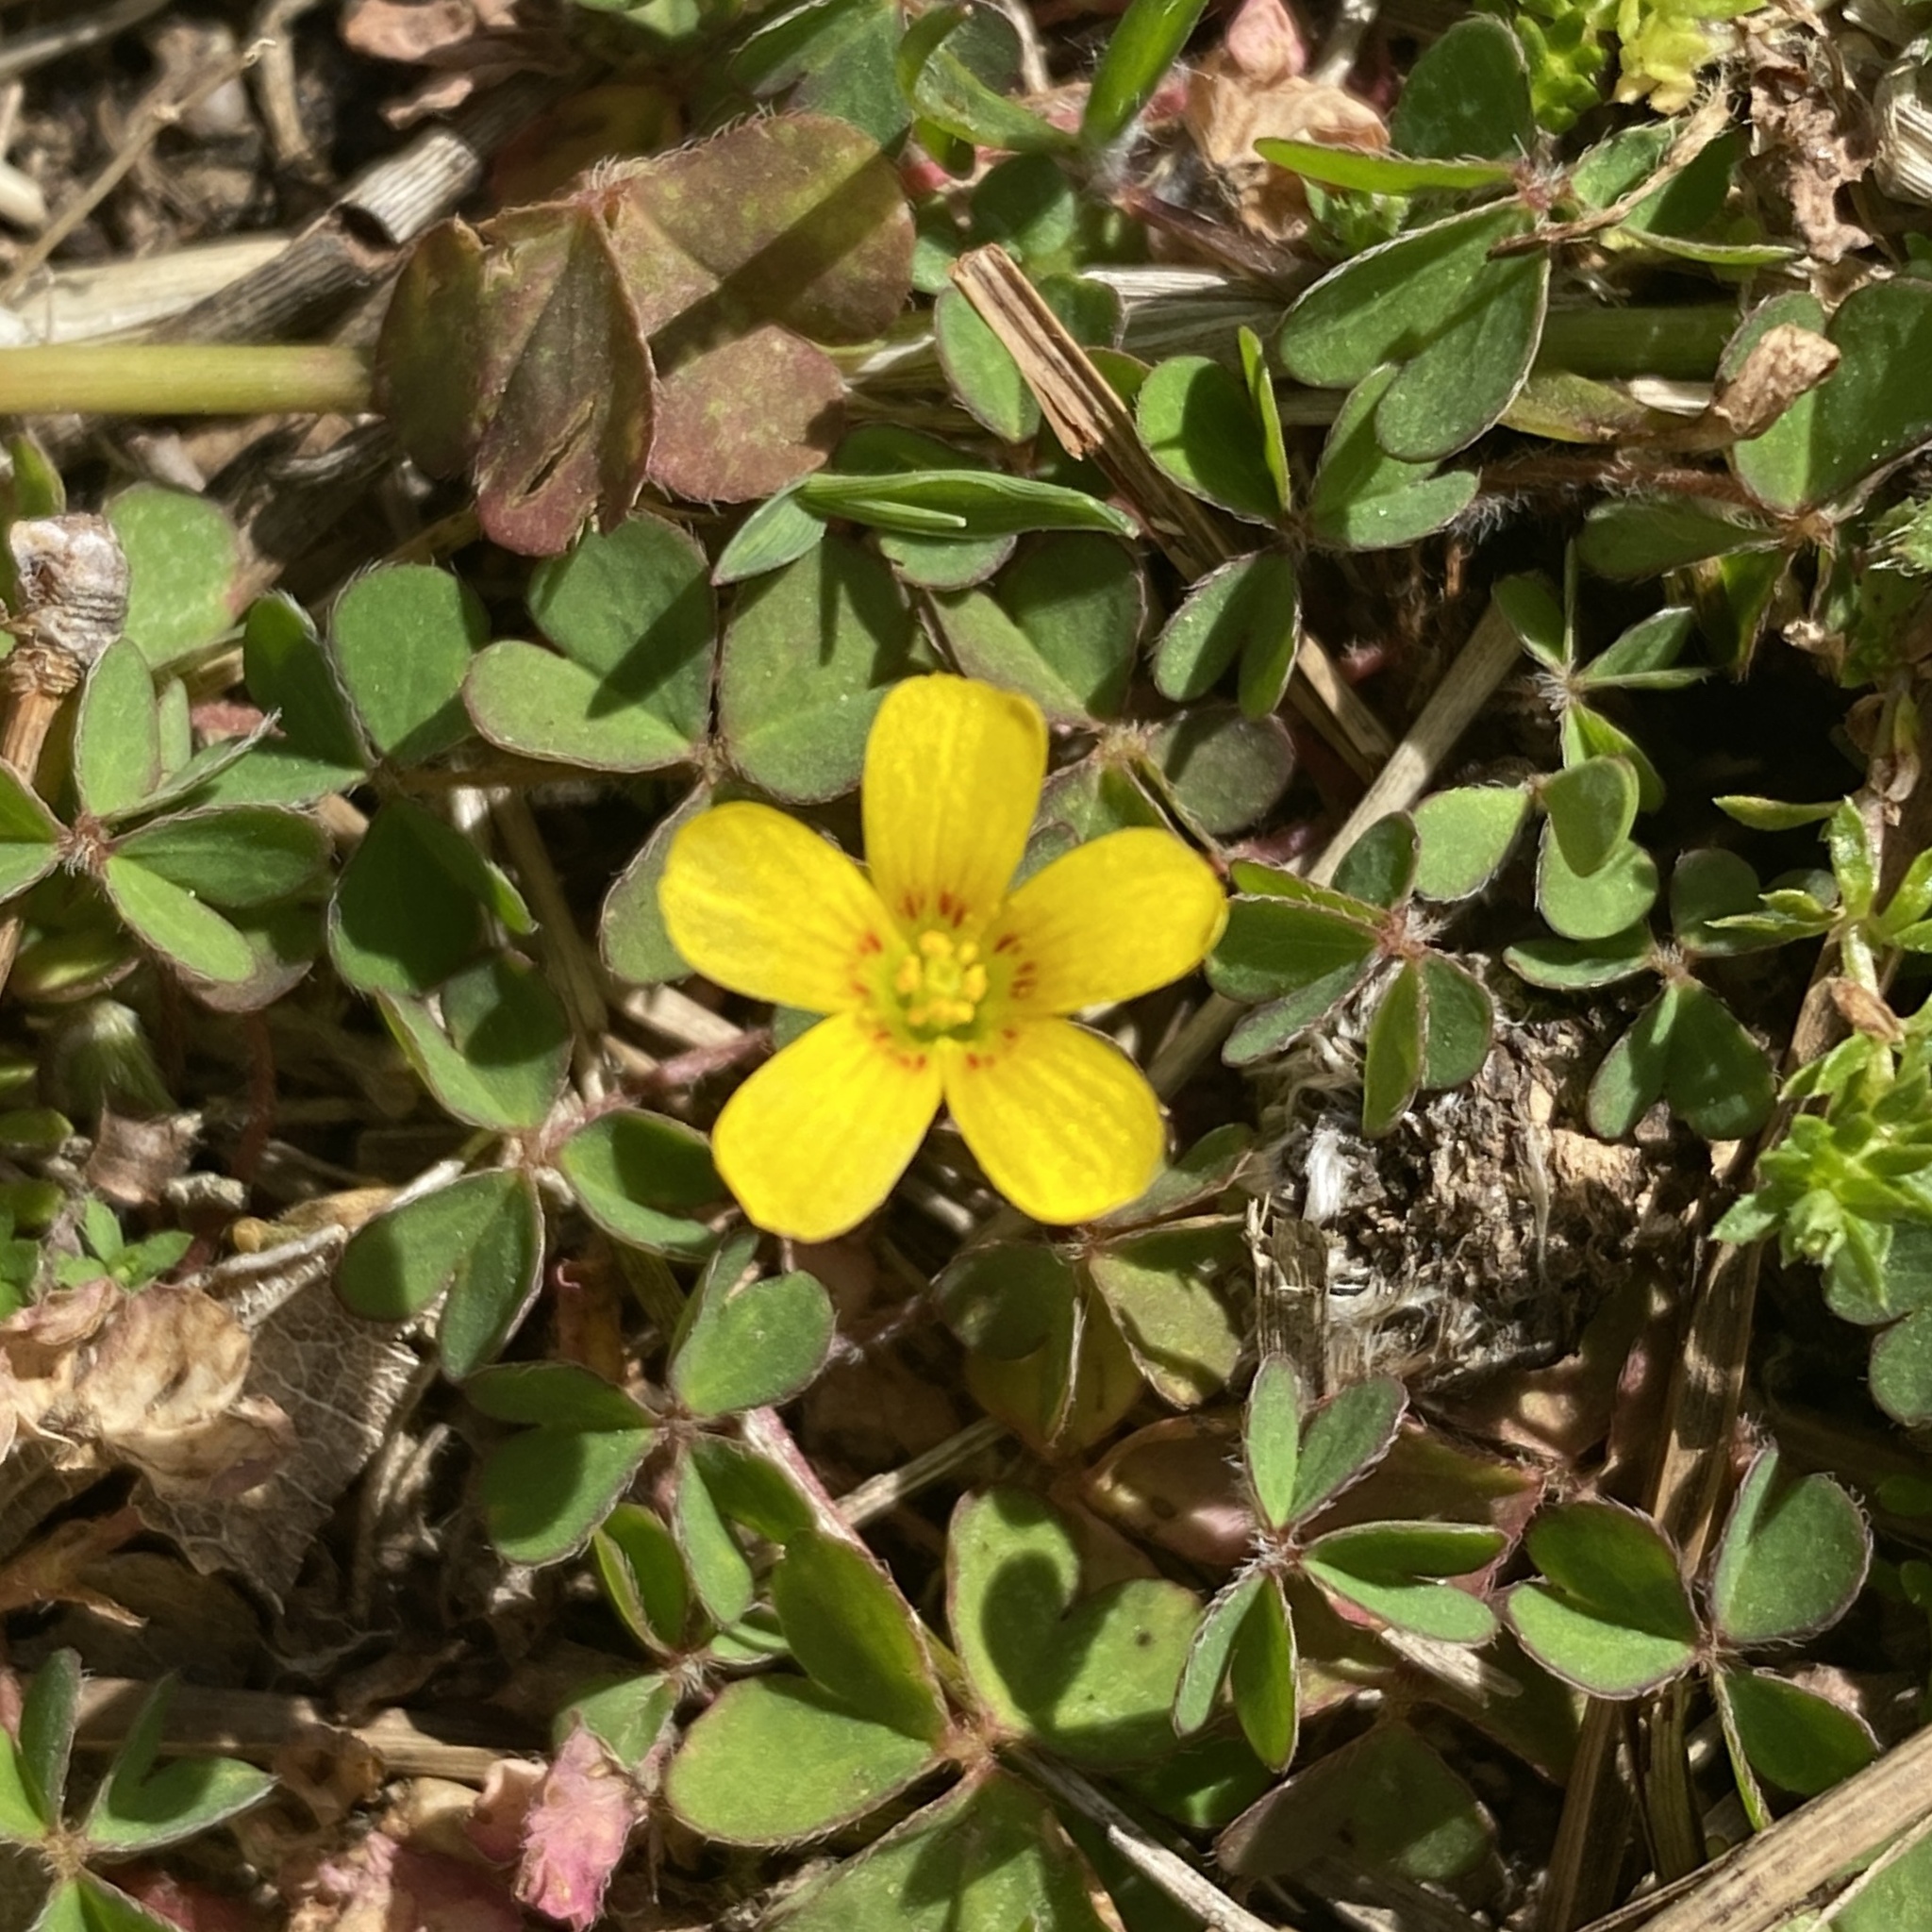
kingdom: Plantae
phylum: Tracheophyta
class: Magnoliopsida
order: Oxalidales
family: Oxalidaceae
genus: Oxalis
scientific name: Oxalis corniculata
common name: Procumbent yellow-sorrel
